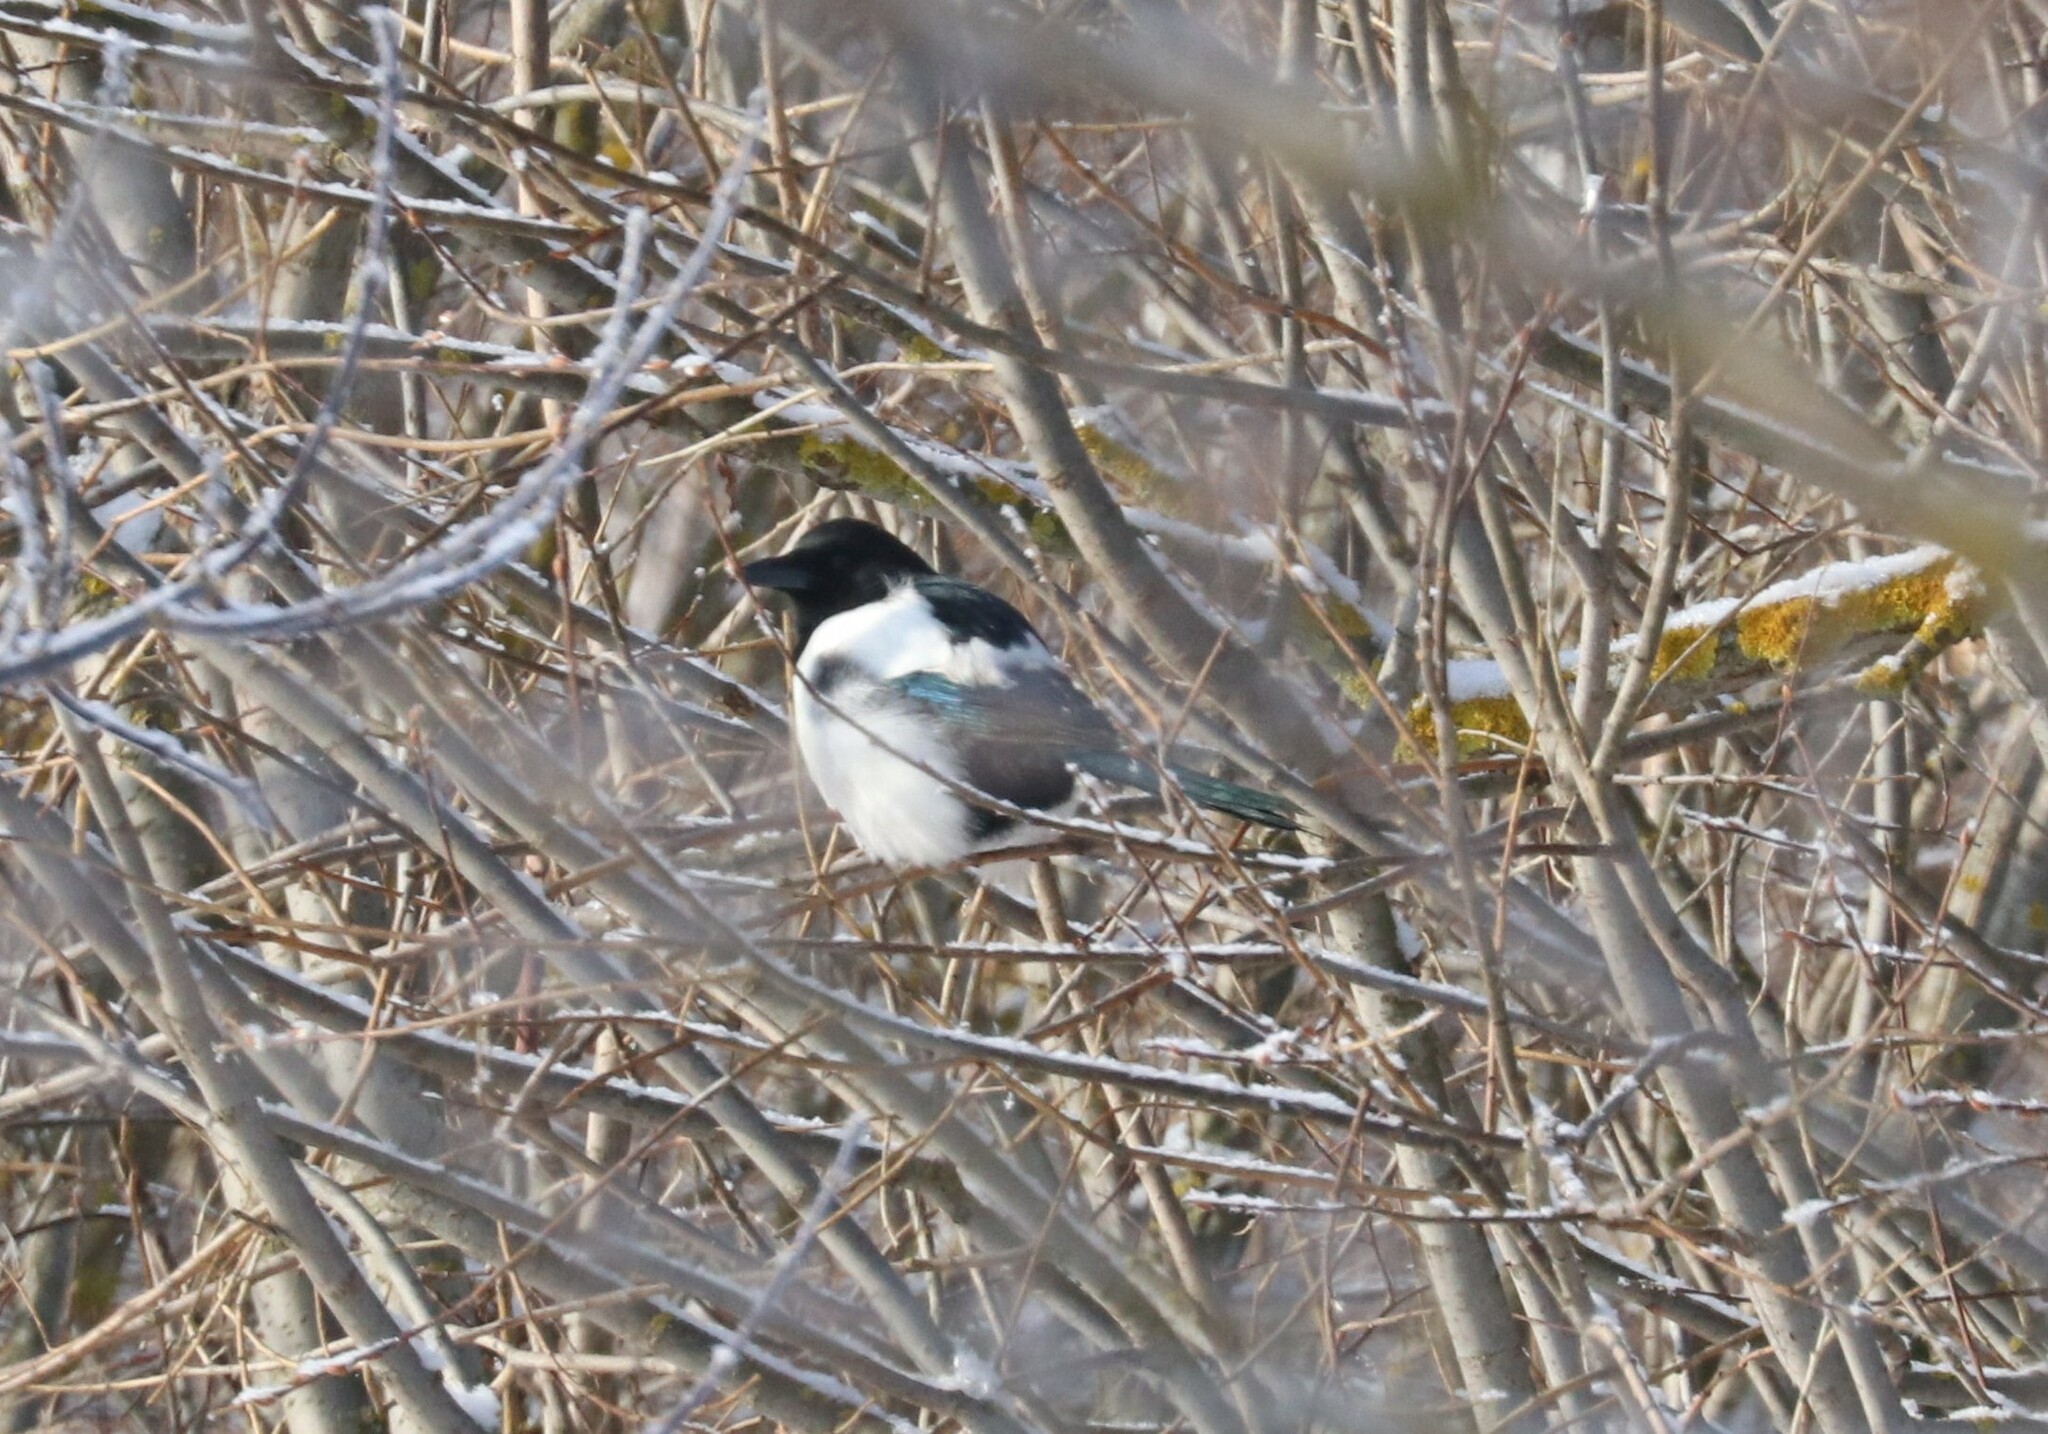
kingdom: Animalia
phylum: Chordata
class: Aves
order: Passeriformes
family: Corvidae
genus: Pica
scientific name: Pica pica
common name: Eurasian magpie
